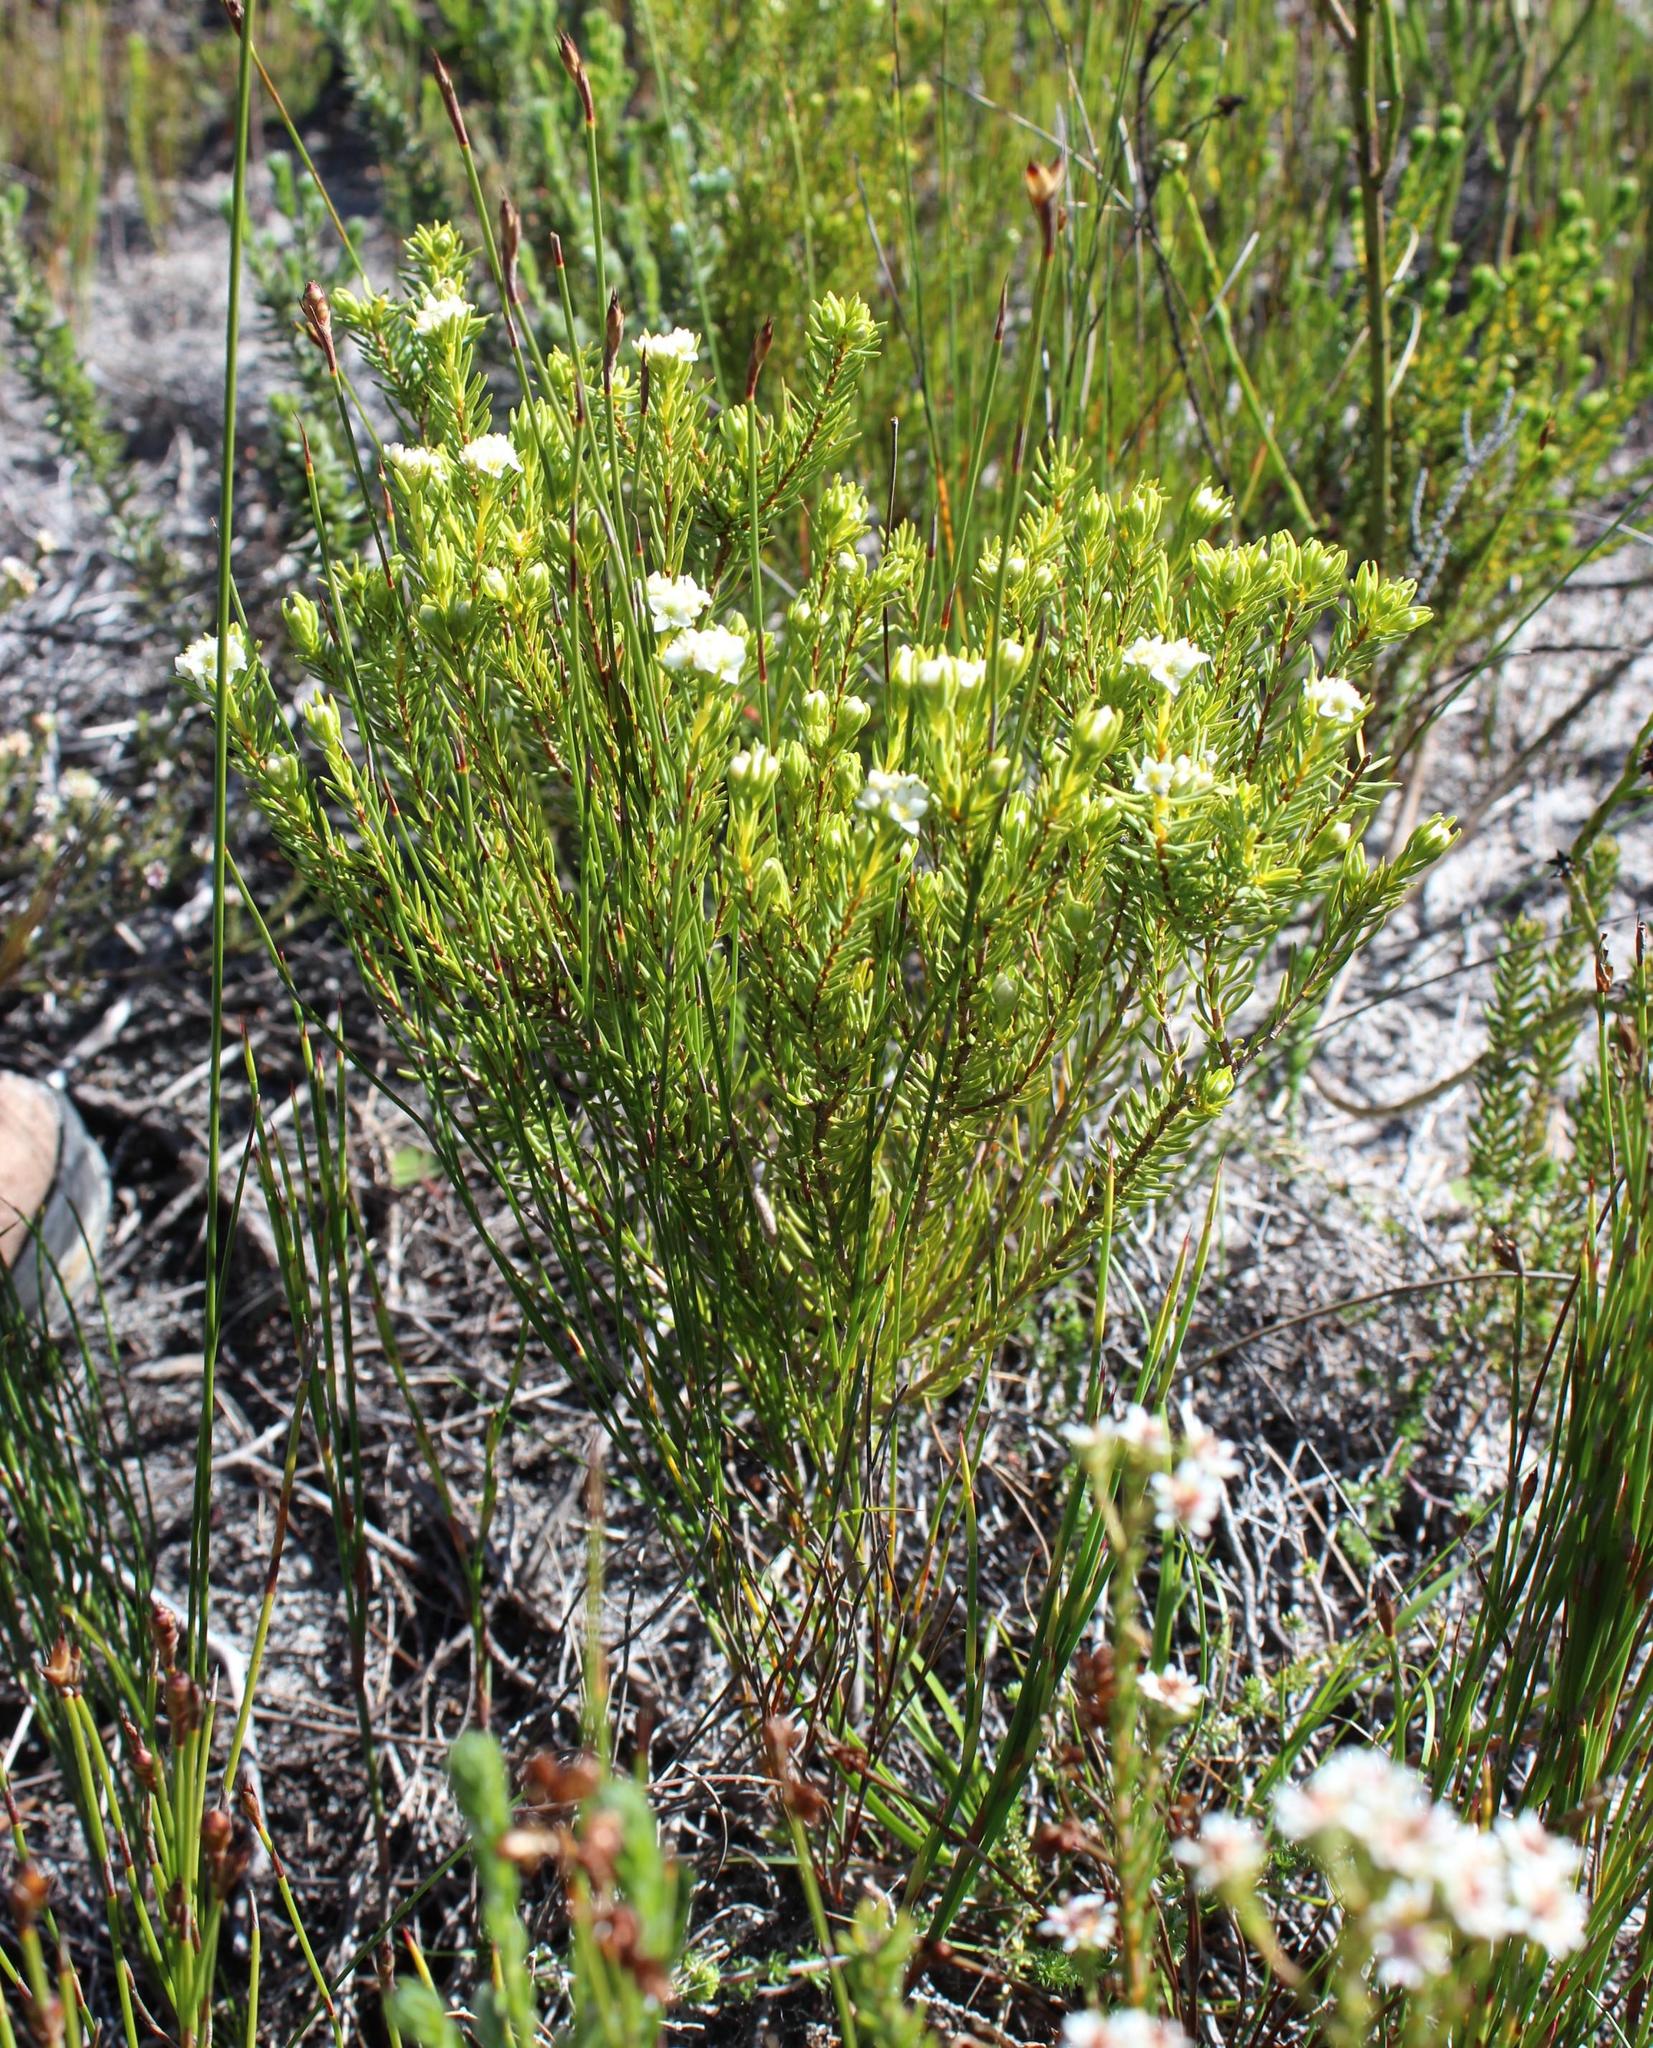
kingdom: Plantae
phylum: Tracheophyta
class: Magnoliopsida
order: Malvales
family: Thymelaeaceae
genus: Lachnaea
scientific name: Lachnaea densiflora
